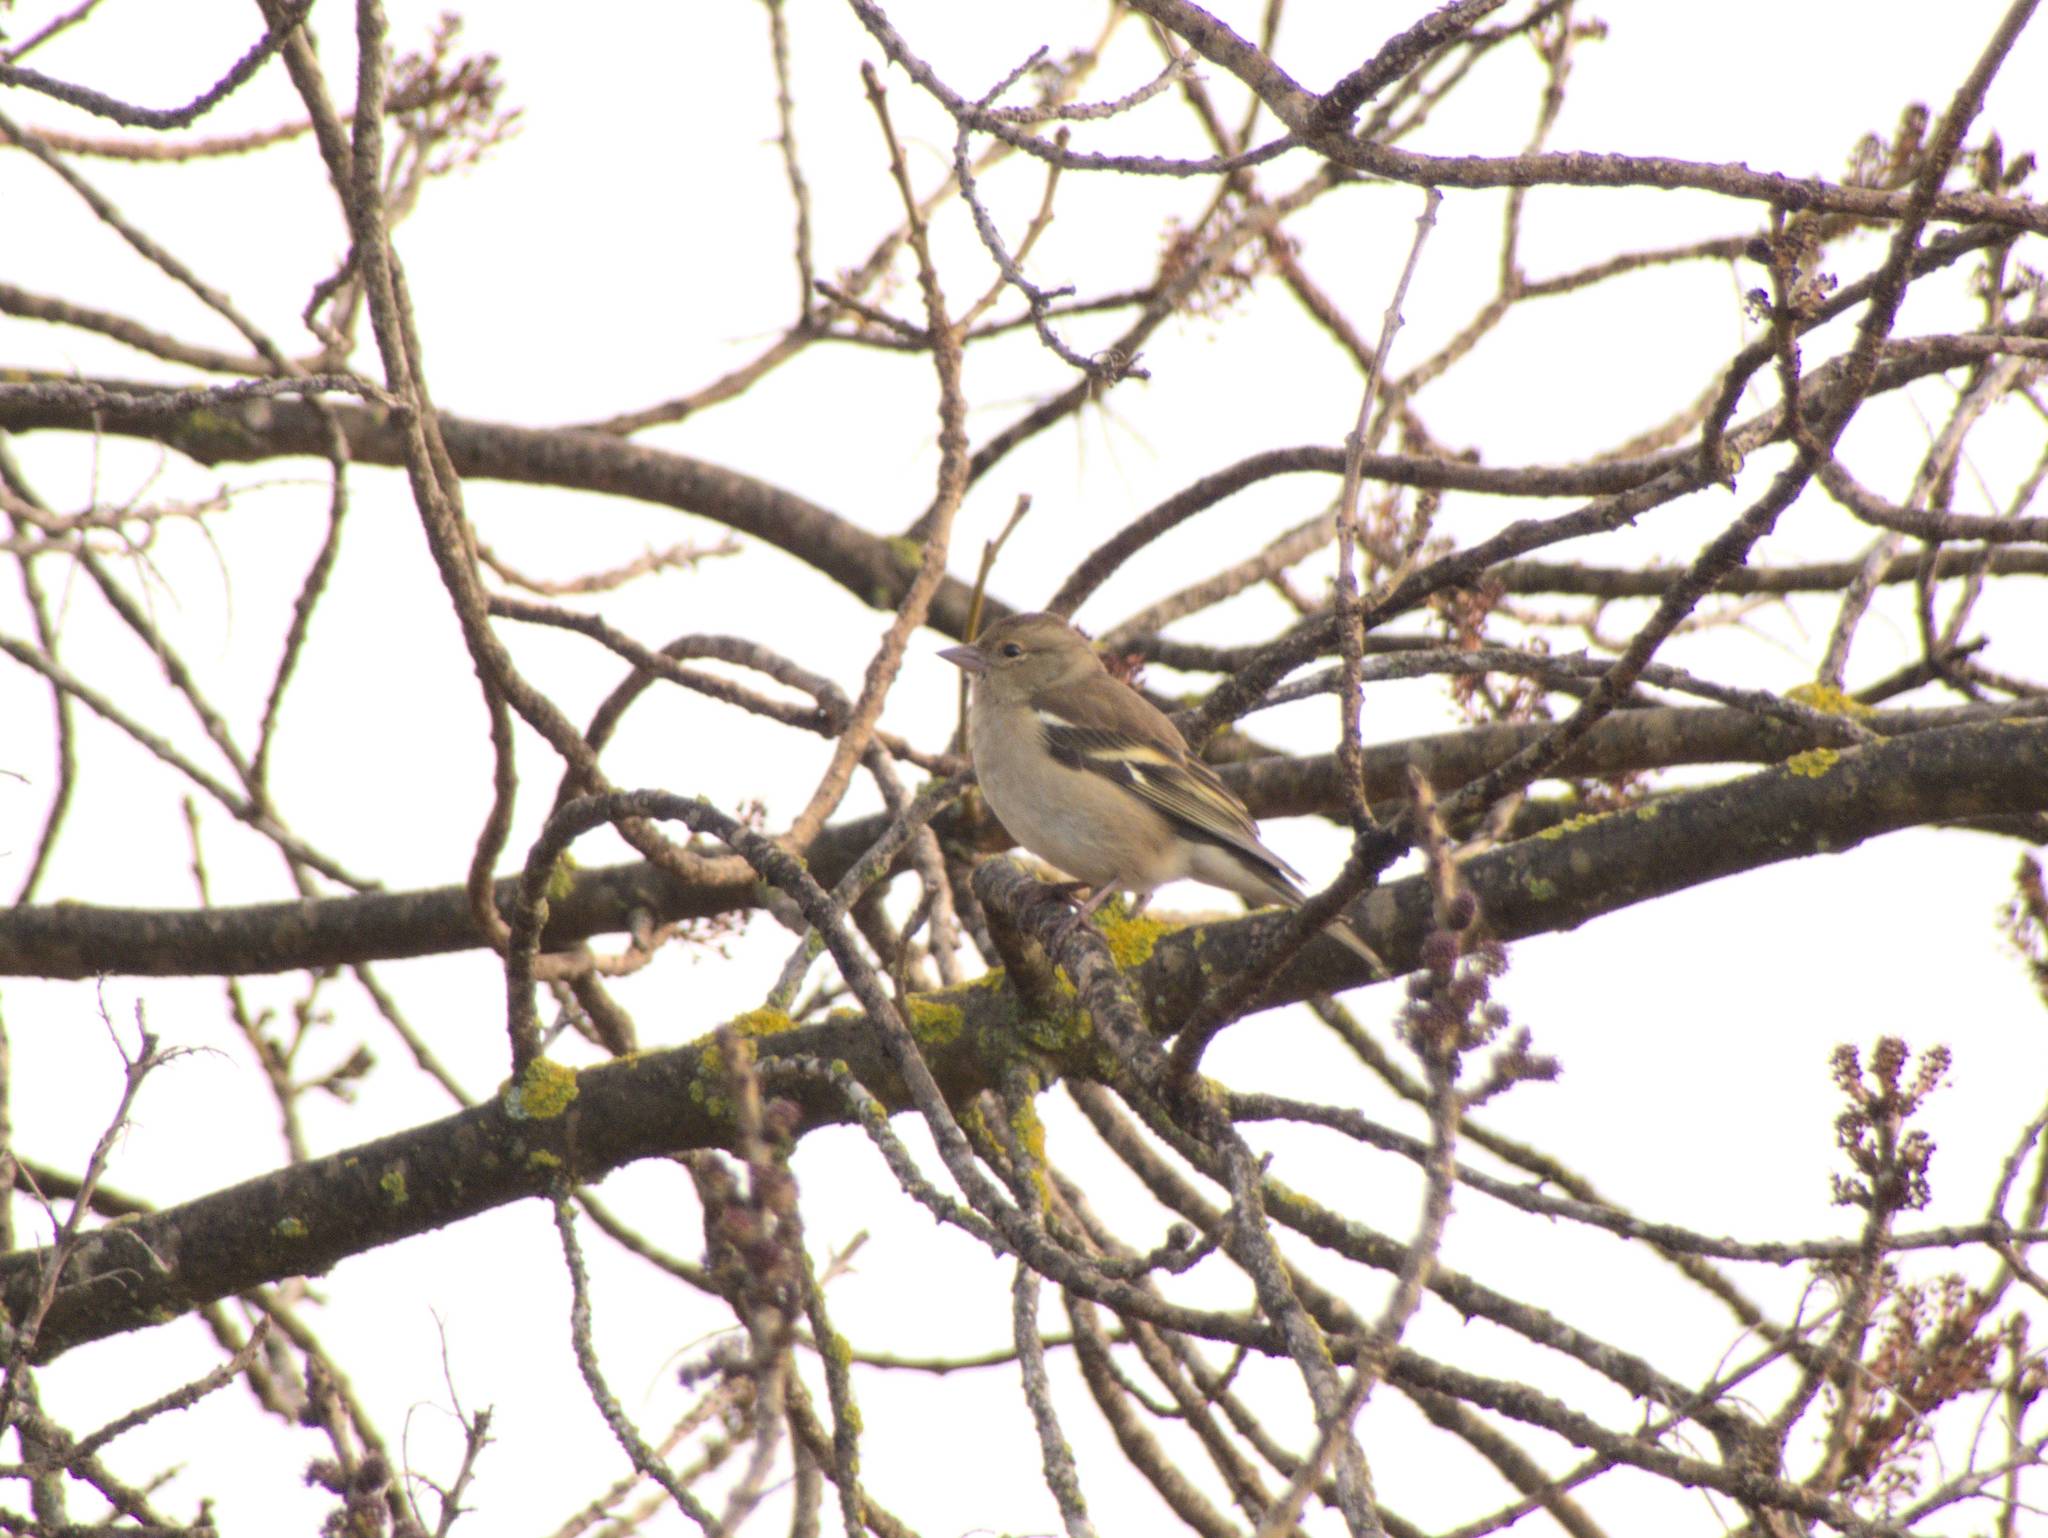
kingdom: Animalia
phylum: Chordata
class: Aves
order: Passeriformes
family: Fringillidae
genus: Fringilla
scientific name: Fringilla coelebs
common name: Common chaffinch
